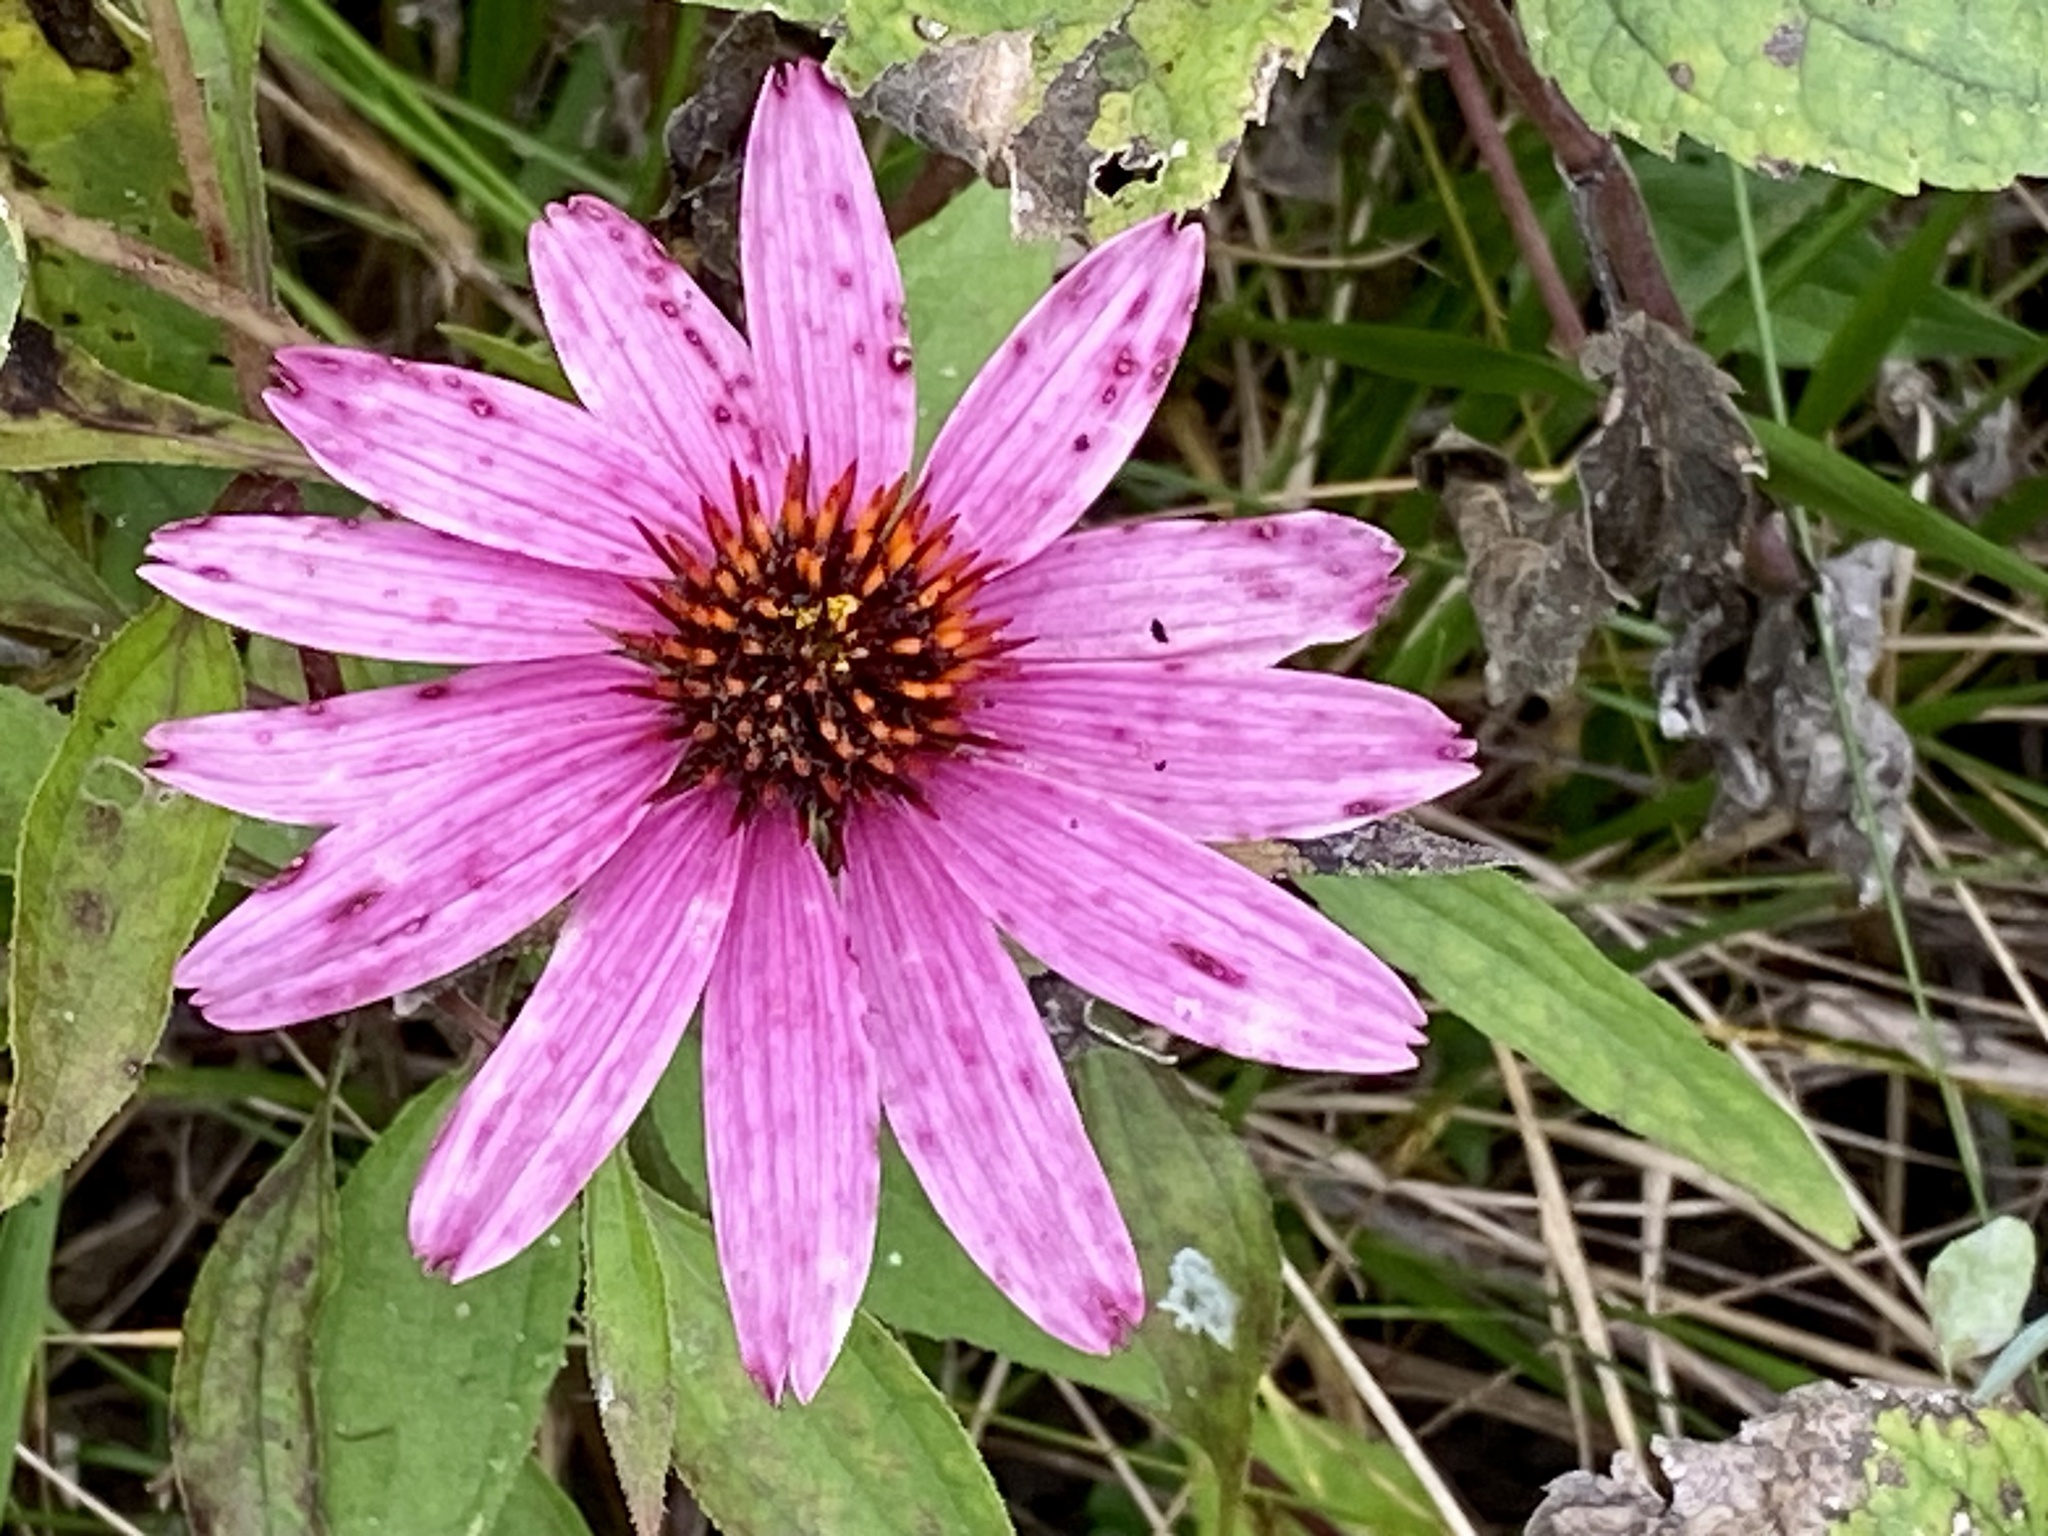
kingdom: Plantae
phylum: Tracheophyta
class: Magnoliopsida
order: Asterales
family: Asteraceae
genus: Echinacea
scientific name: Echinacea purpurea
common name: Broad-leaved purple coneflower
